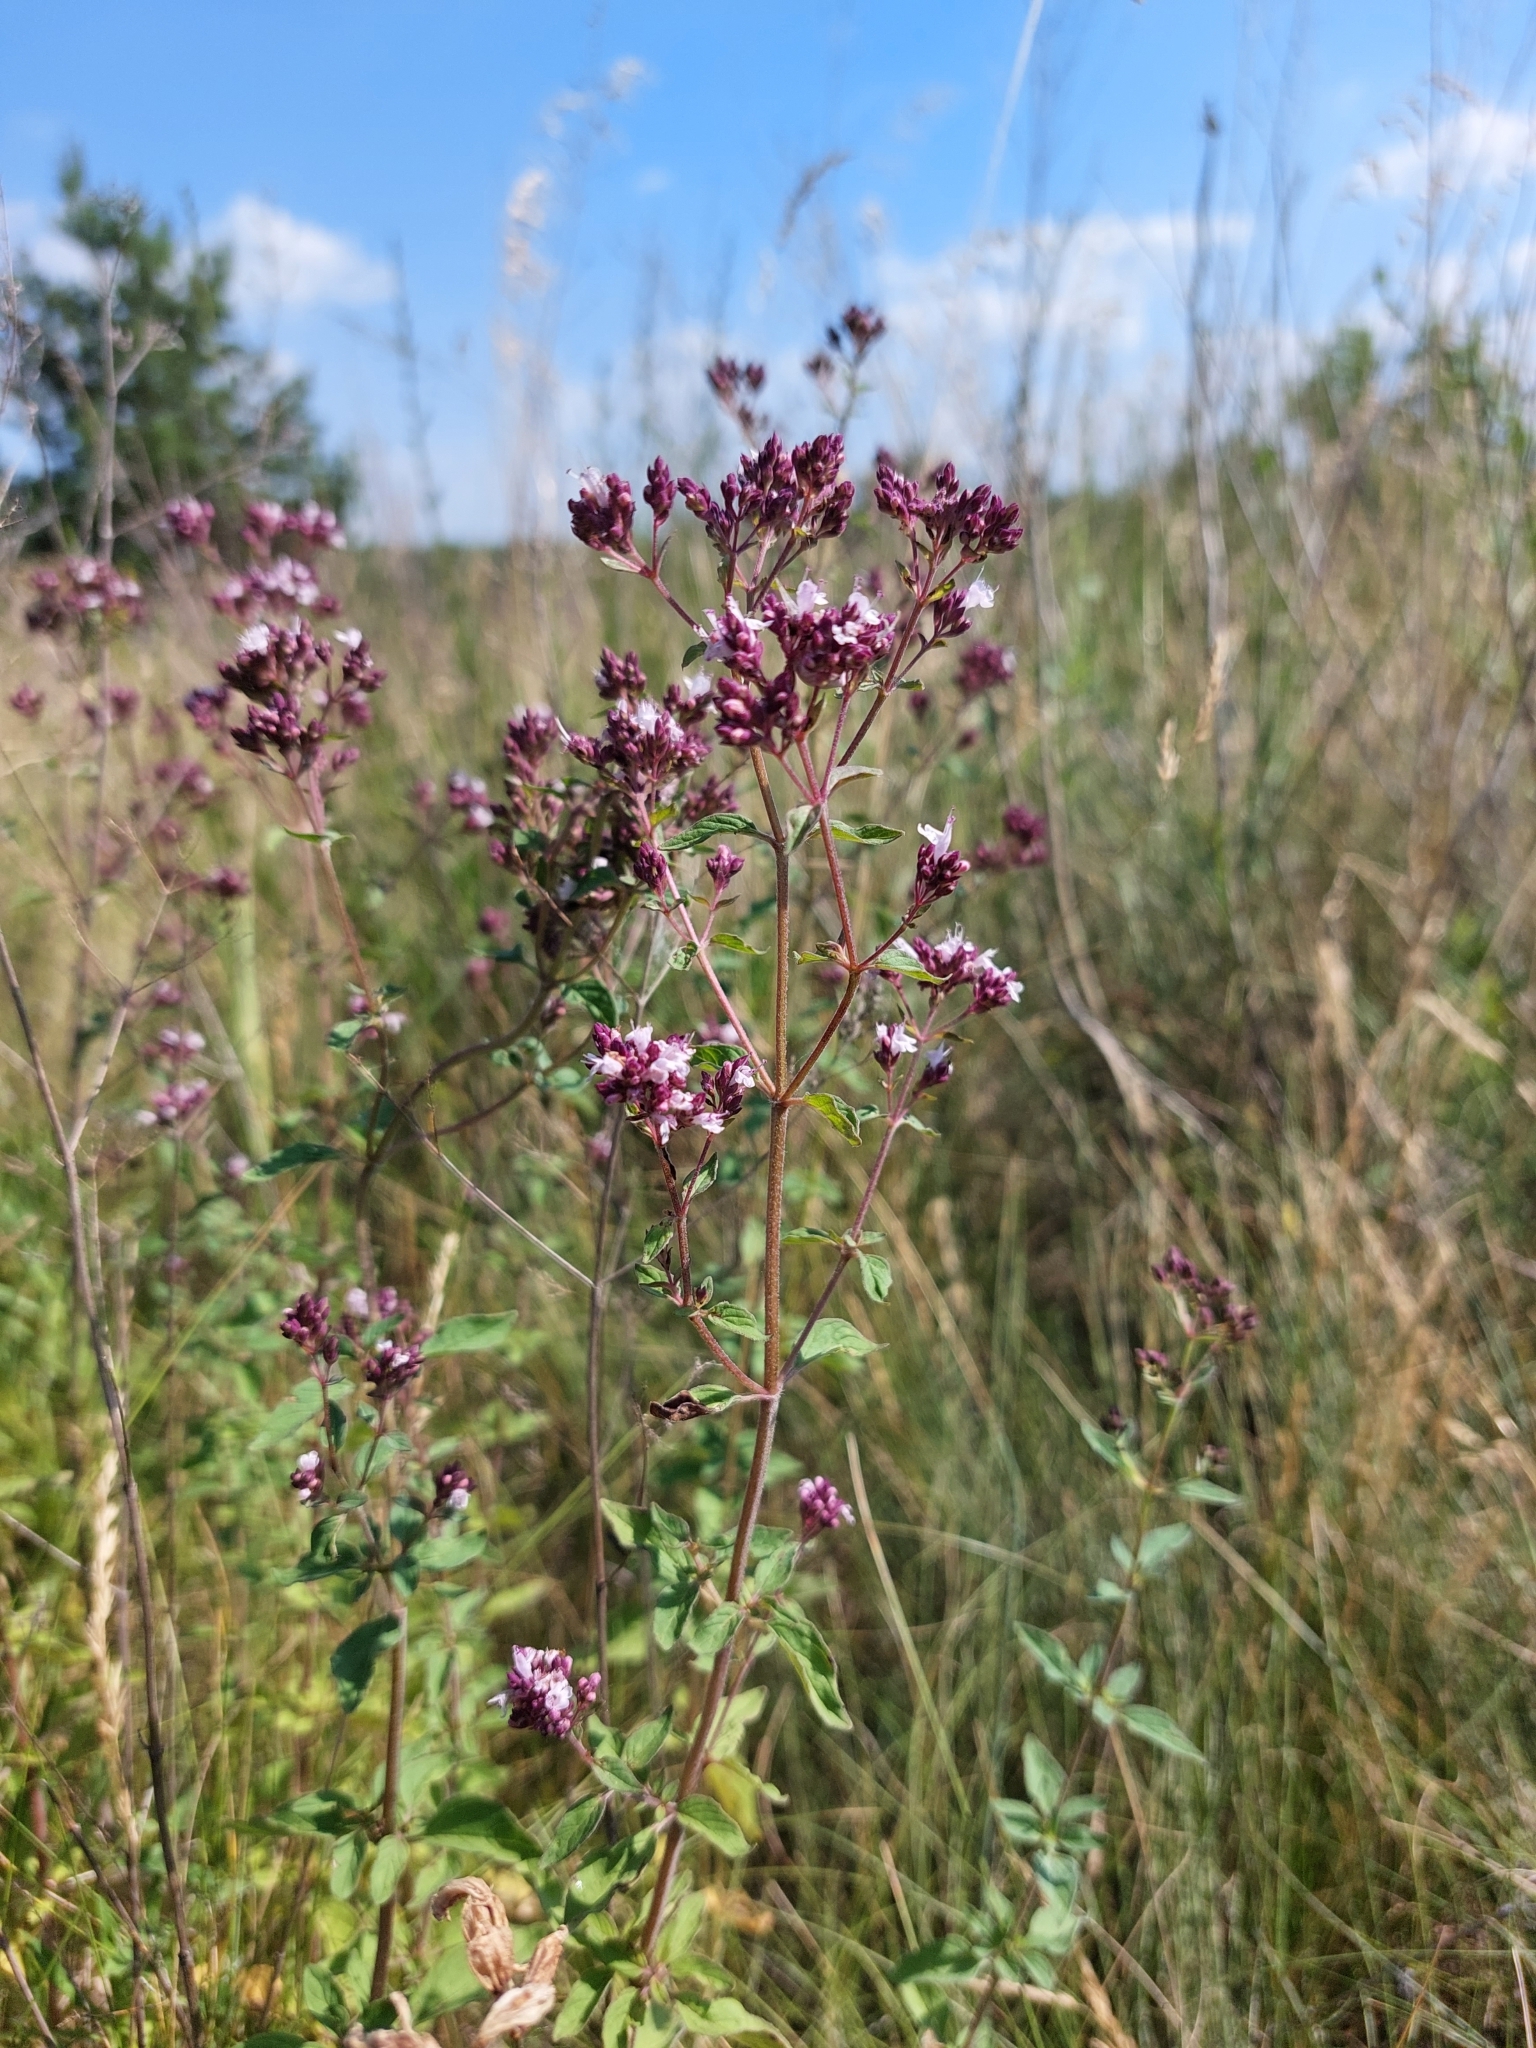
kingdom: Plantae
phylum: Tracheophyta
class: Magnoliopsida
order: Lamiales
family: Lamiaceae
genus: Origanum
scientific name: Origanum vulgare
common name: Wild marjoram
